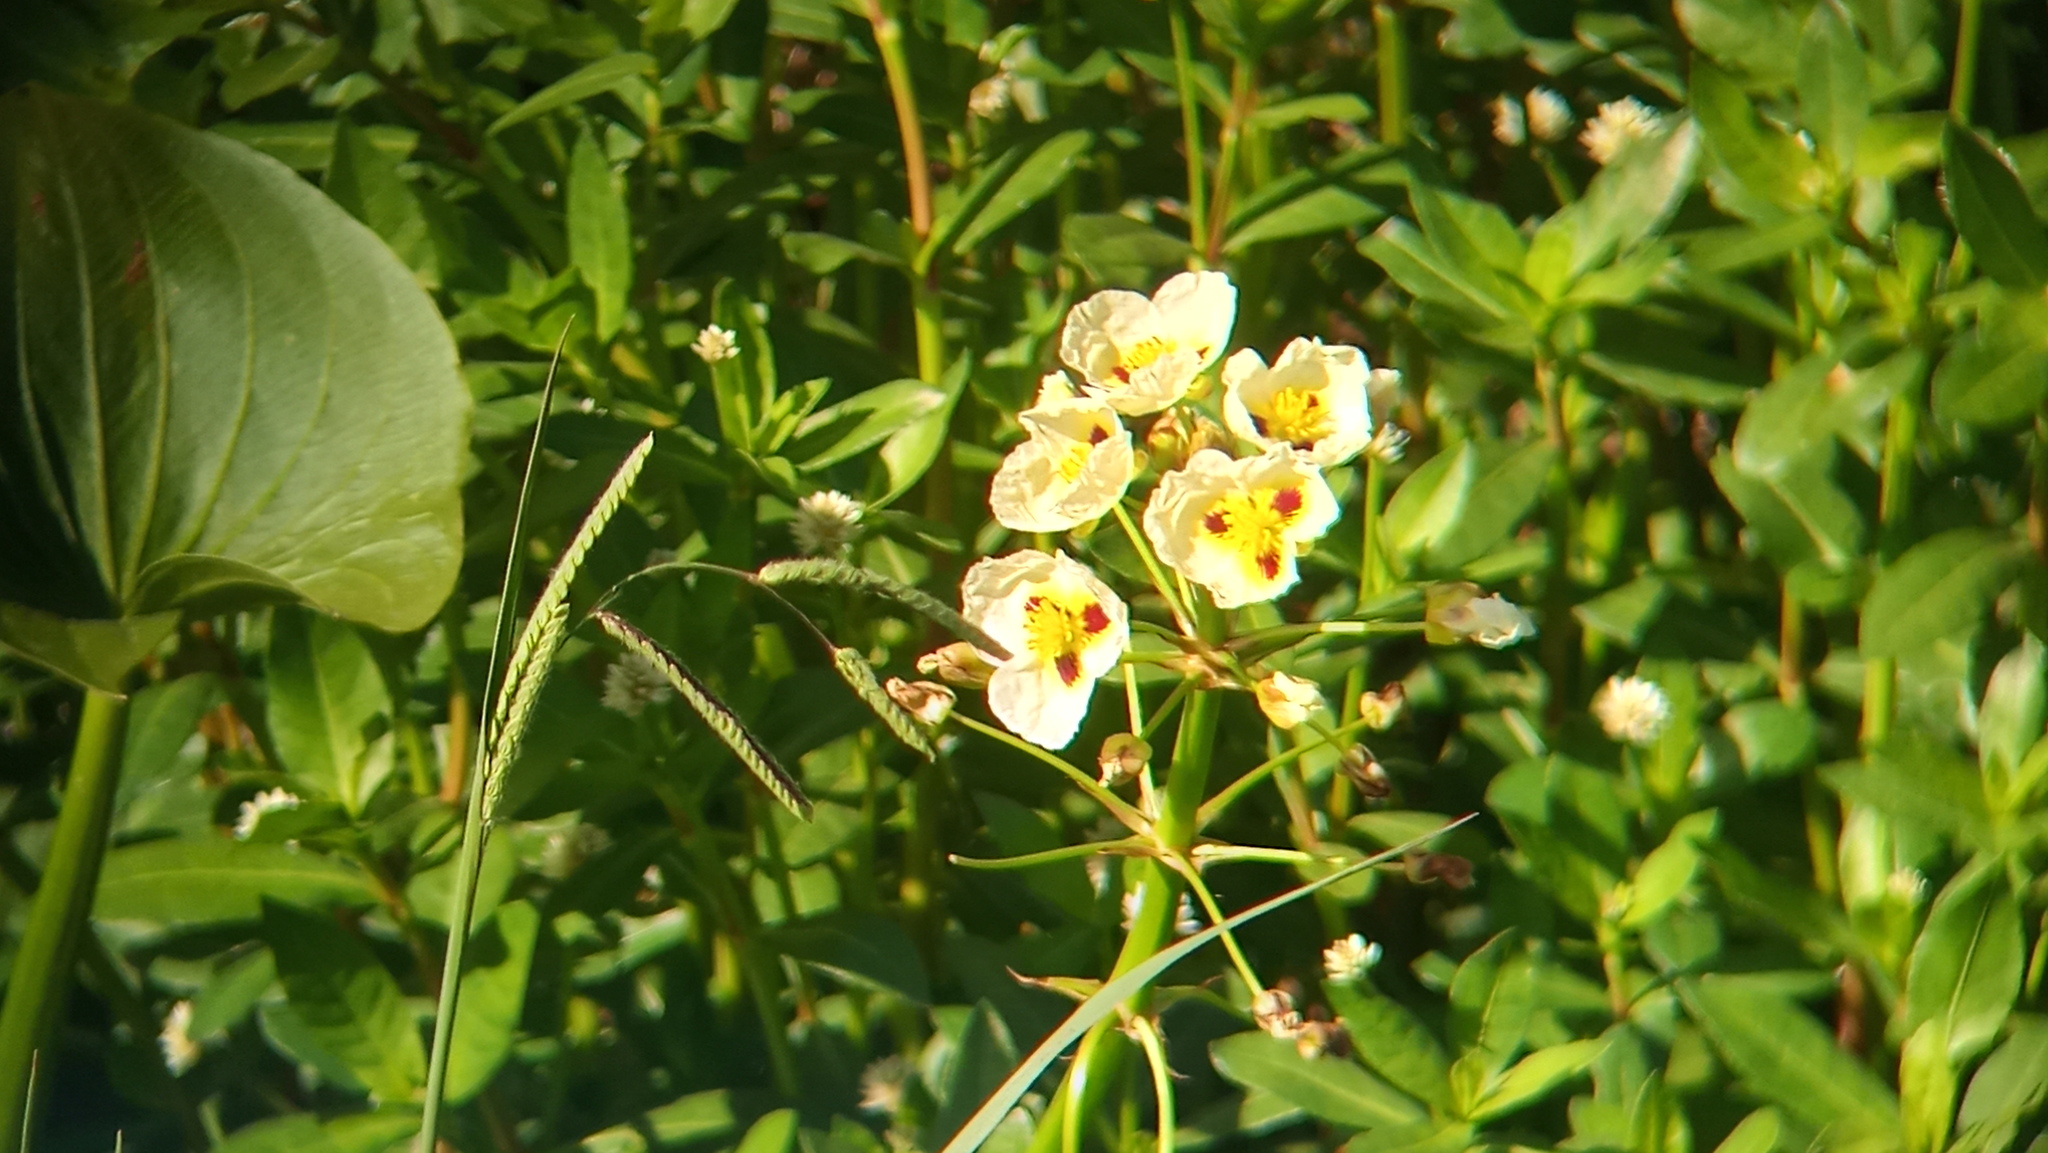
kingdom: Plantae
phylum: Tracheophyta
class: Liliopsida
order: Alismatales
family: Alismataceae
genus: Sagittaria
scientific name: Sagittaria montevidensis
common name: Giant arrowhead
